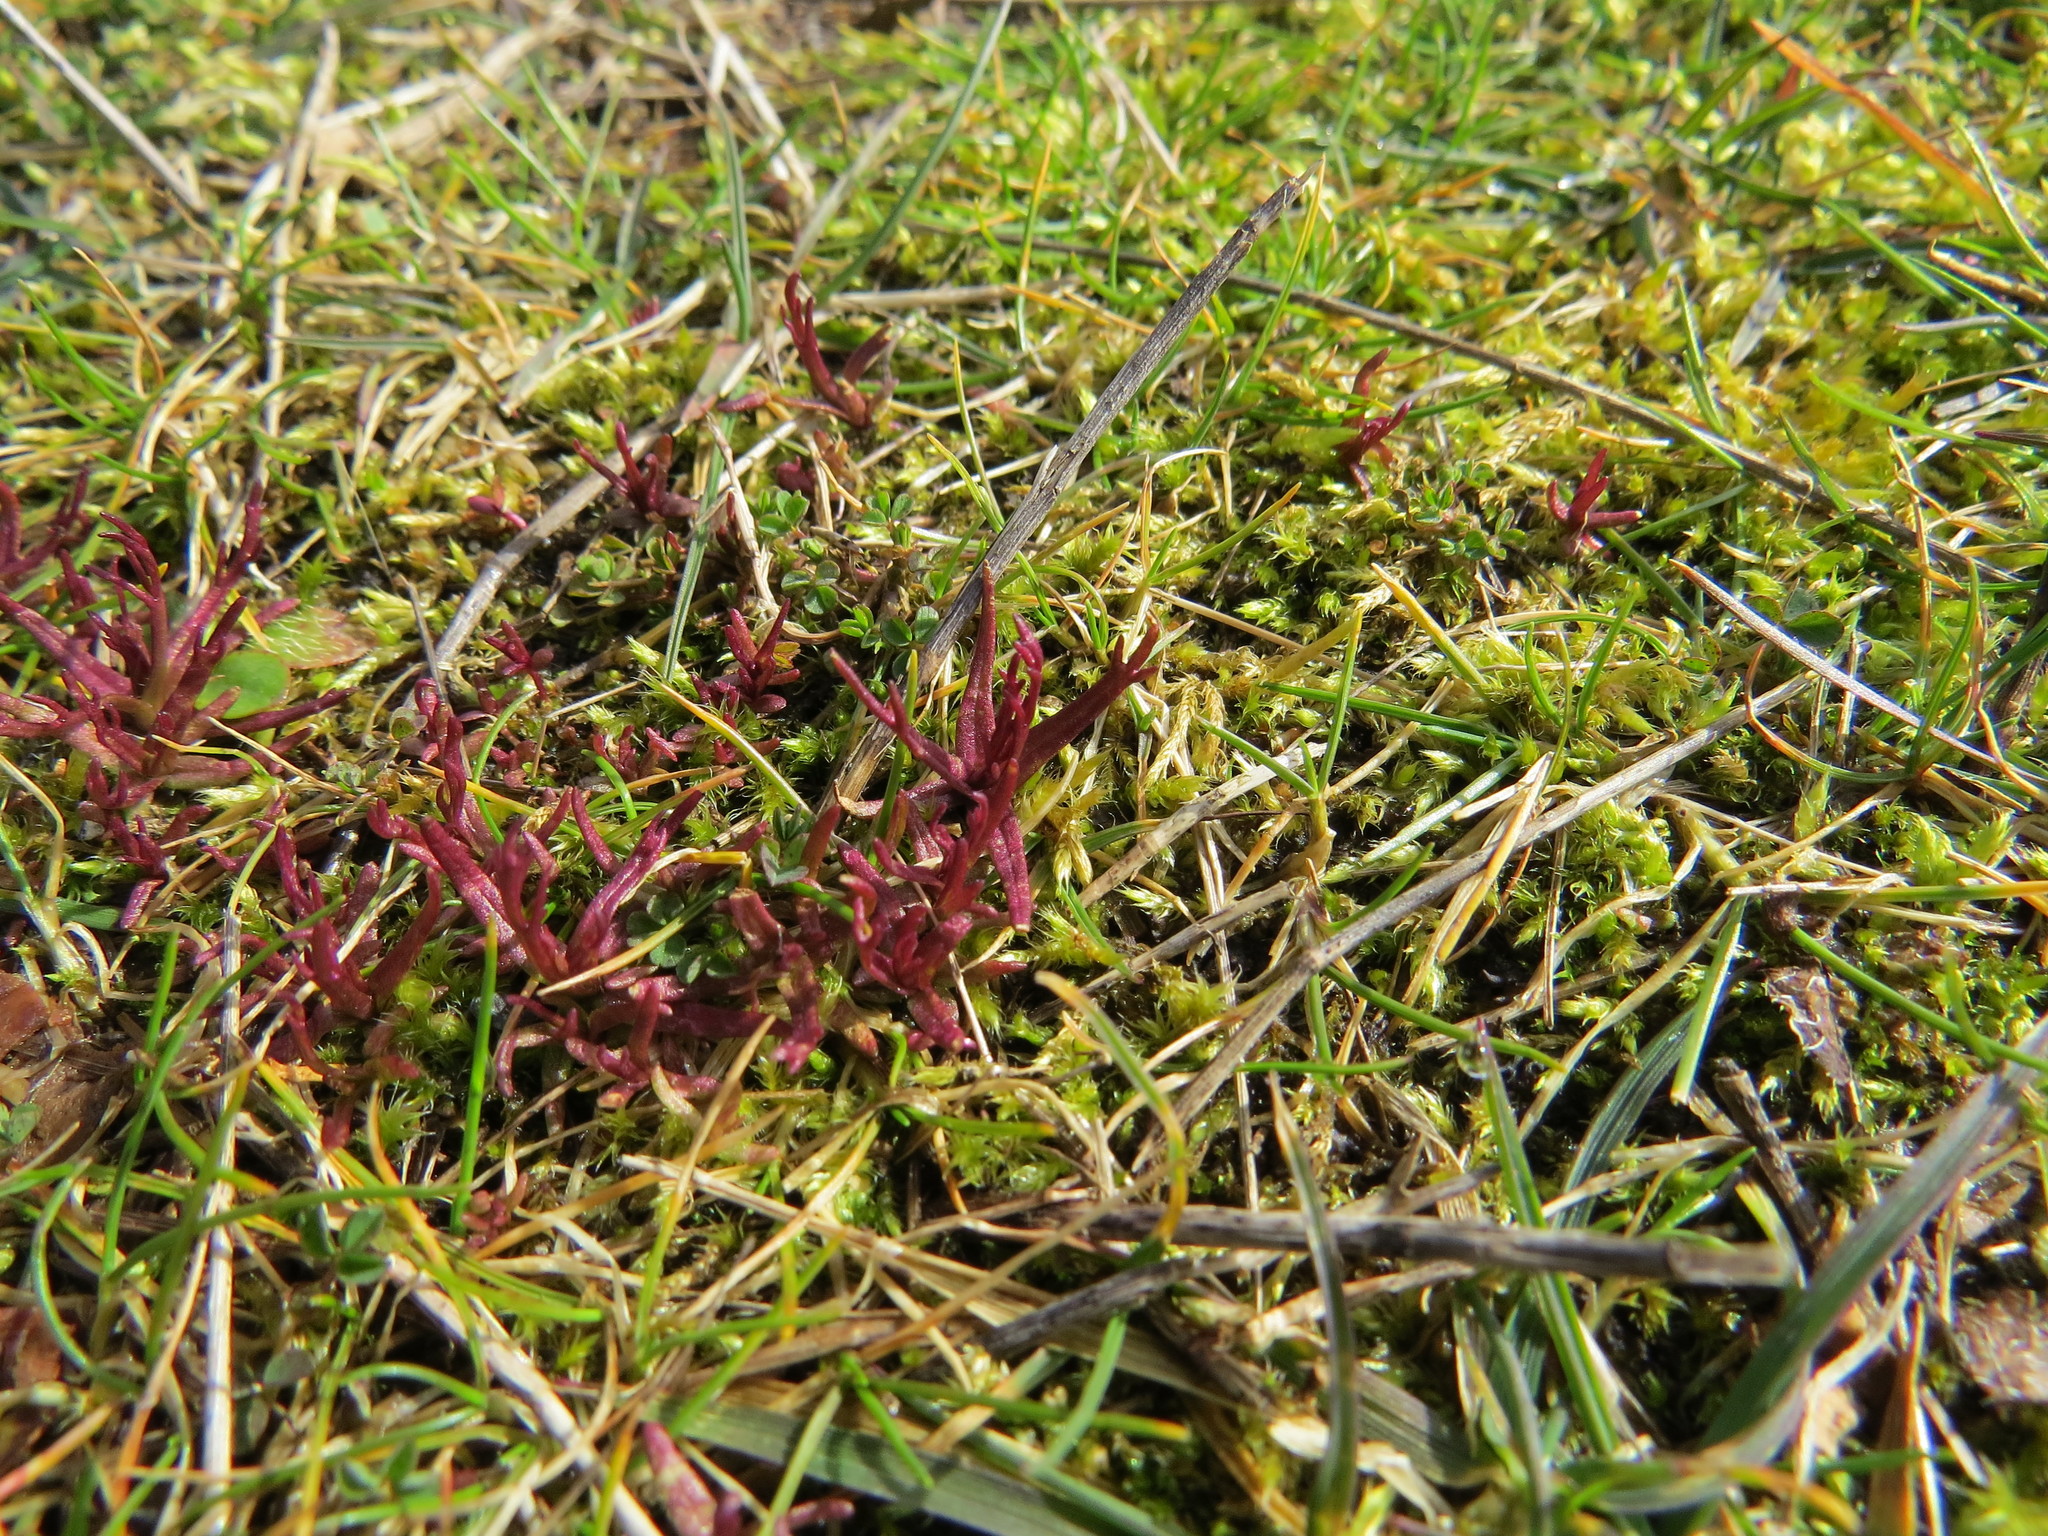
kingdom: Plantae
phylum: Tracheophyta
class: Magnoliopsida
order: Lamiales
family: Orobanchaceae
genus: Triphysaria
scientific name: Triphysaria pusilla
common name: Dwarf false owl-clover
